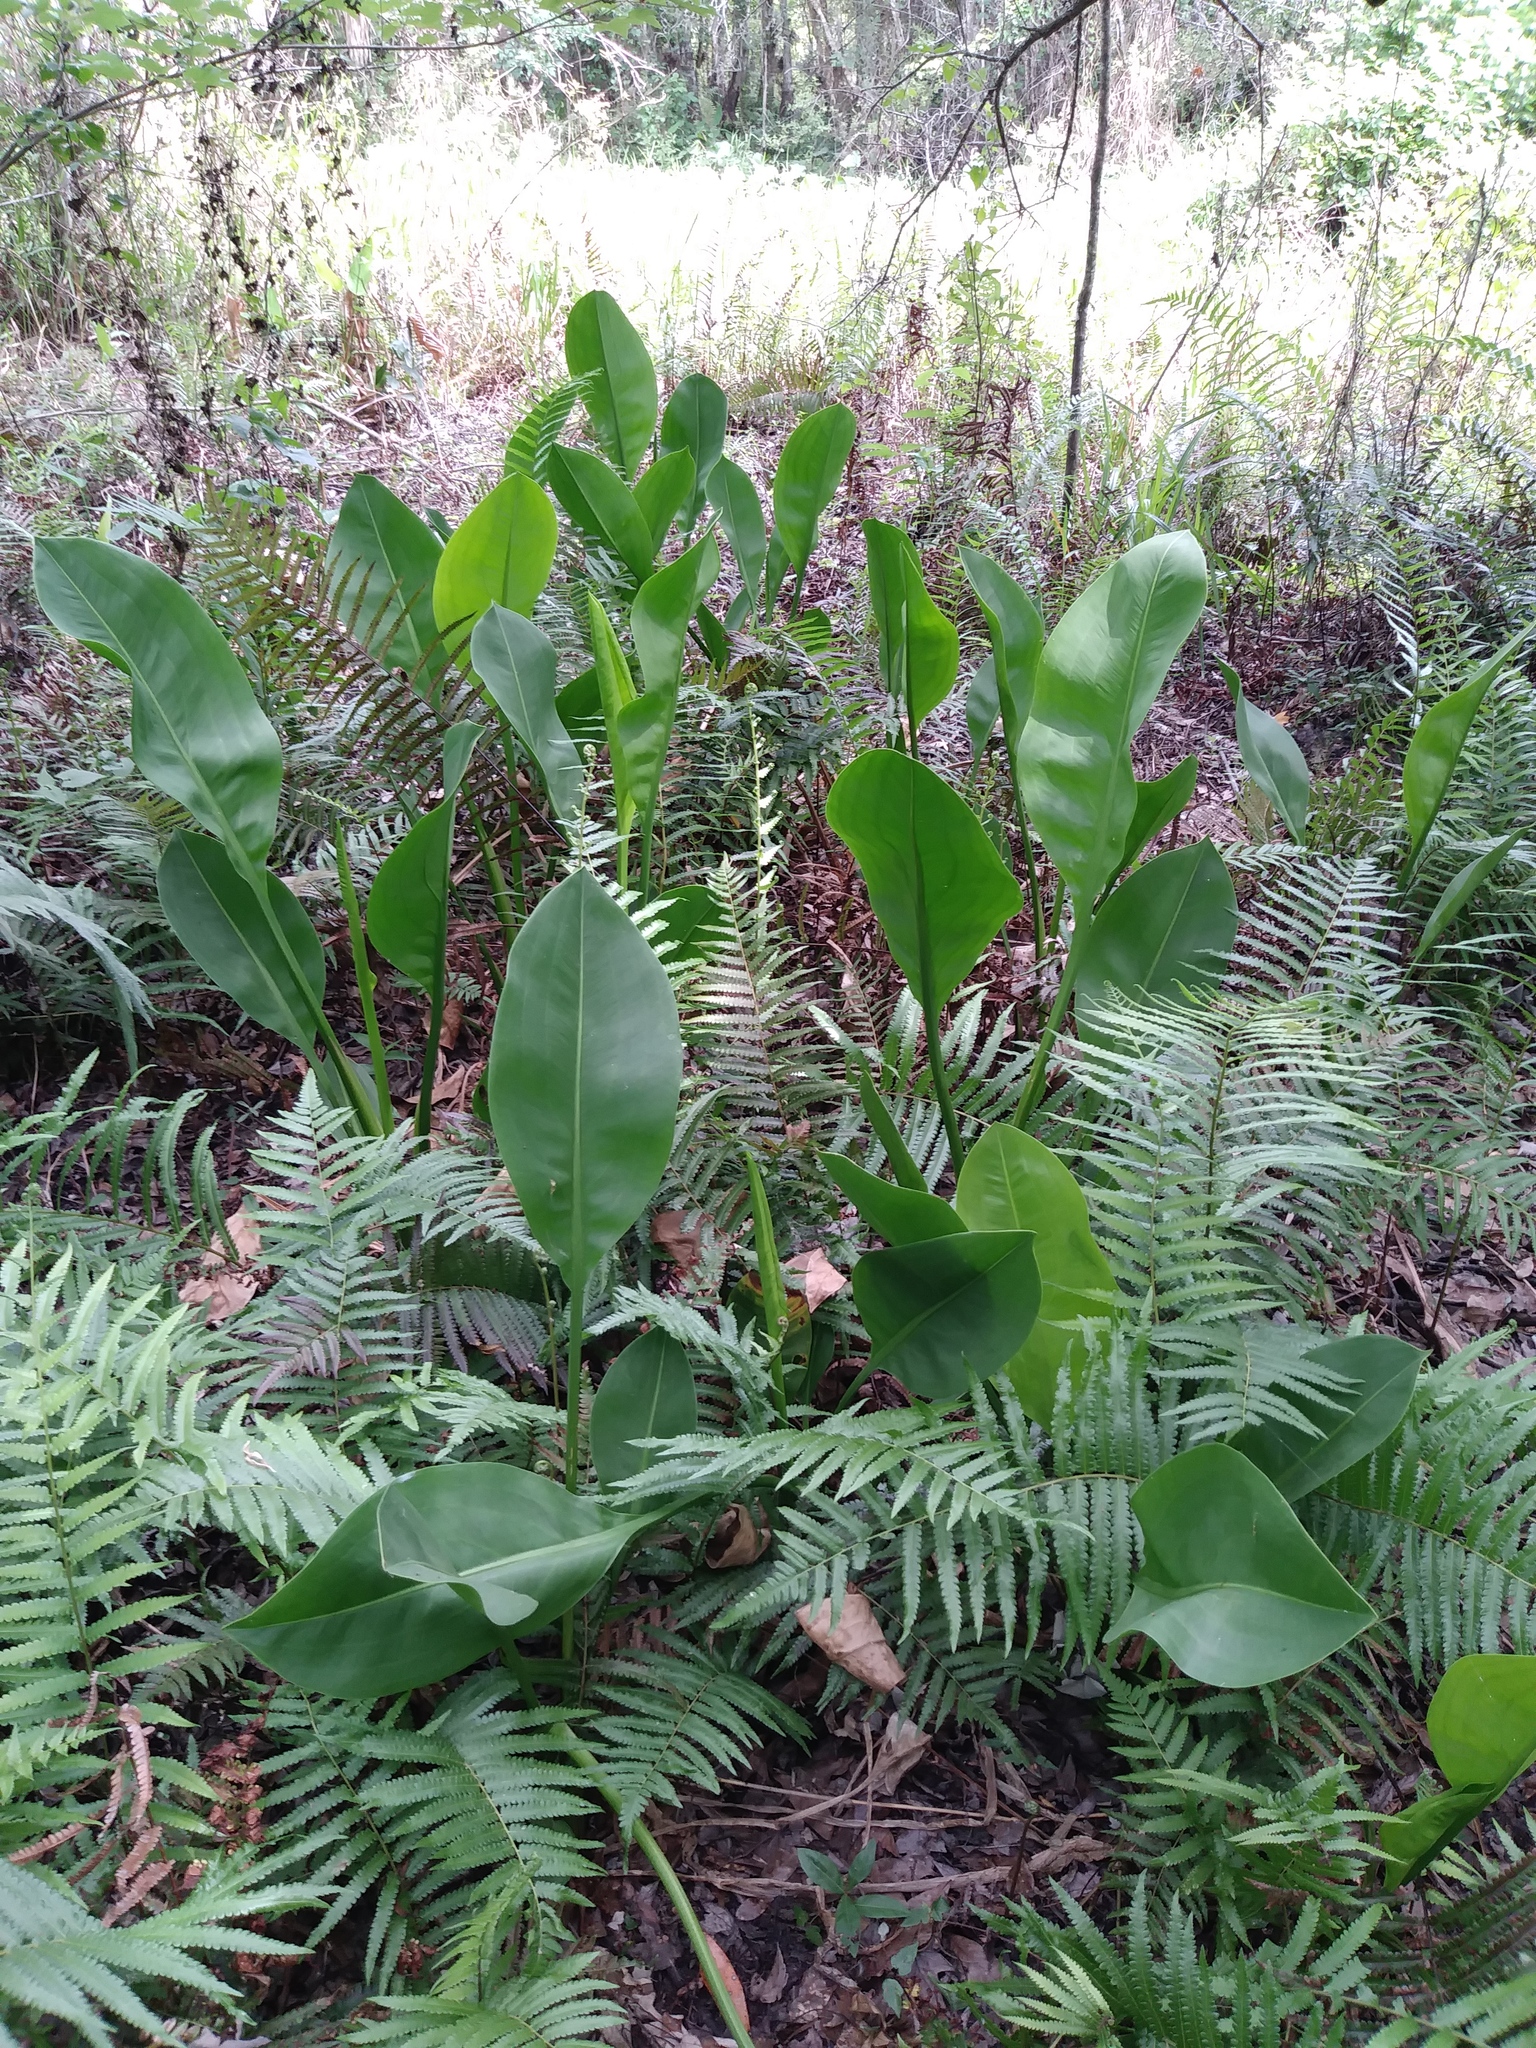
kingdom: Plantae
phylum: Tracheophyta
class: Liliopsida
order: Alismatales
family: Alismataceae
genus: Sagittaria
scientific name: Sagittaria lancifolia
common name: Lance-leaf arrowhead
